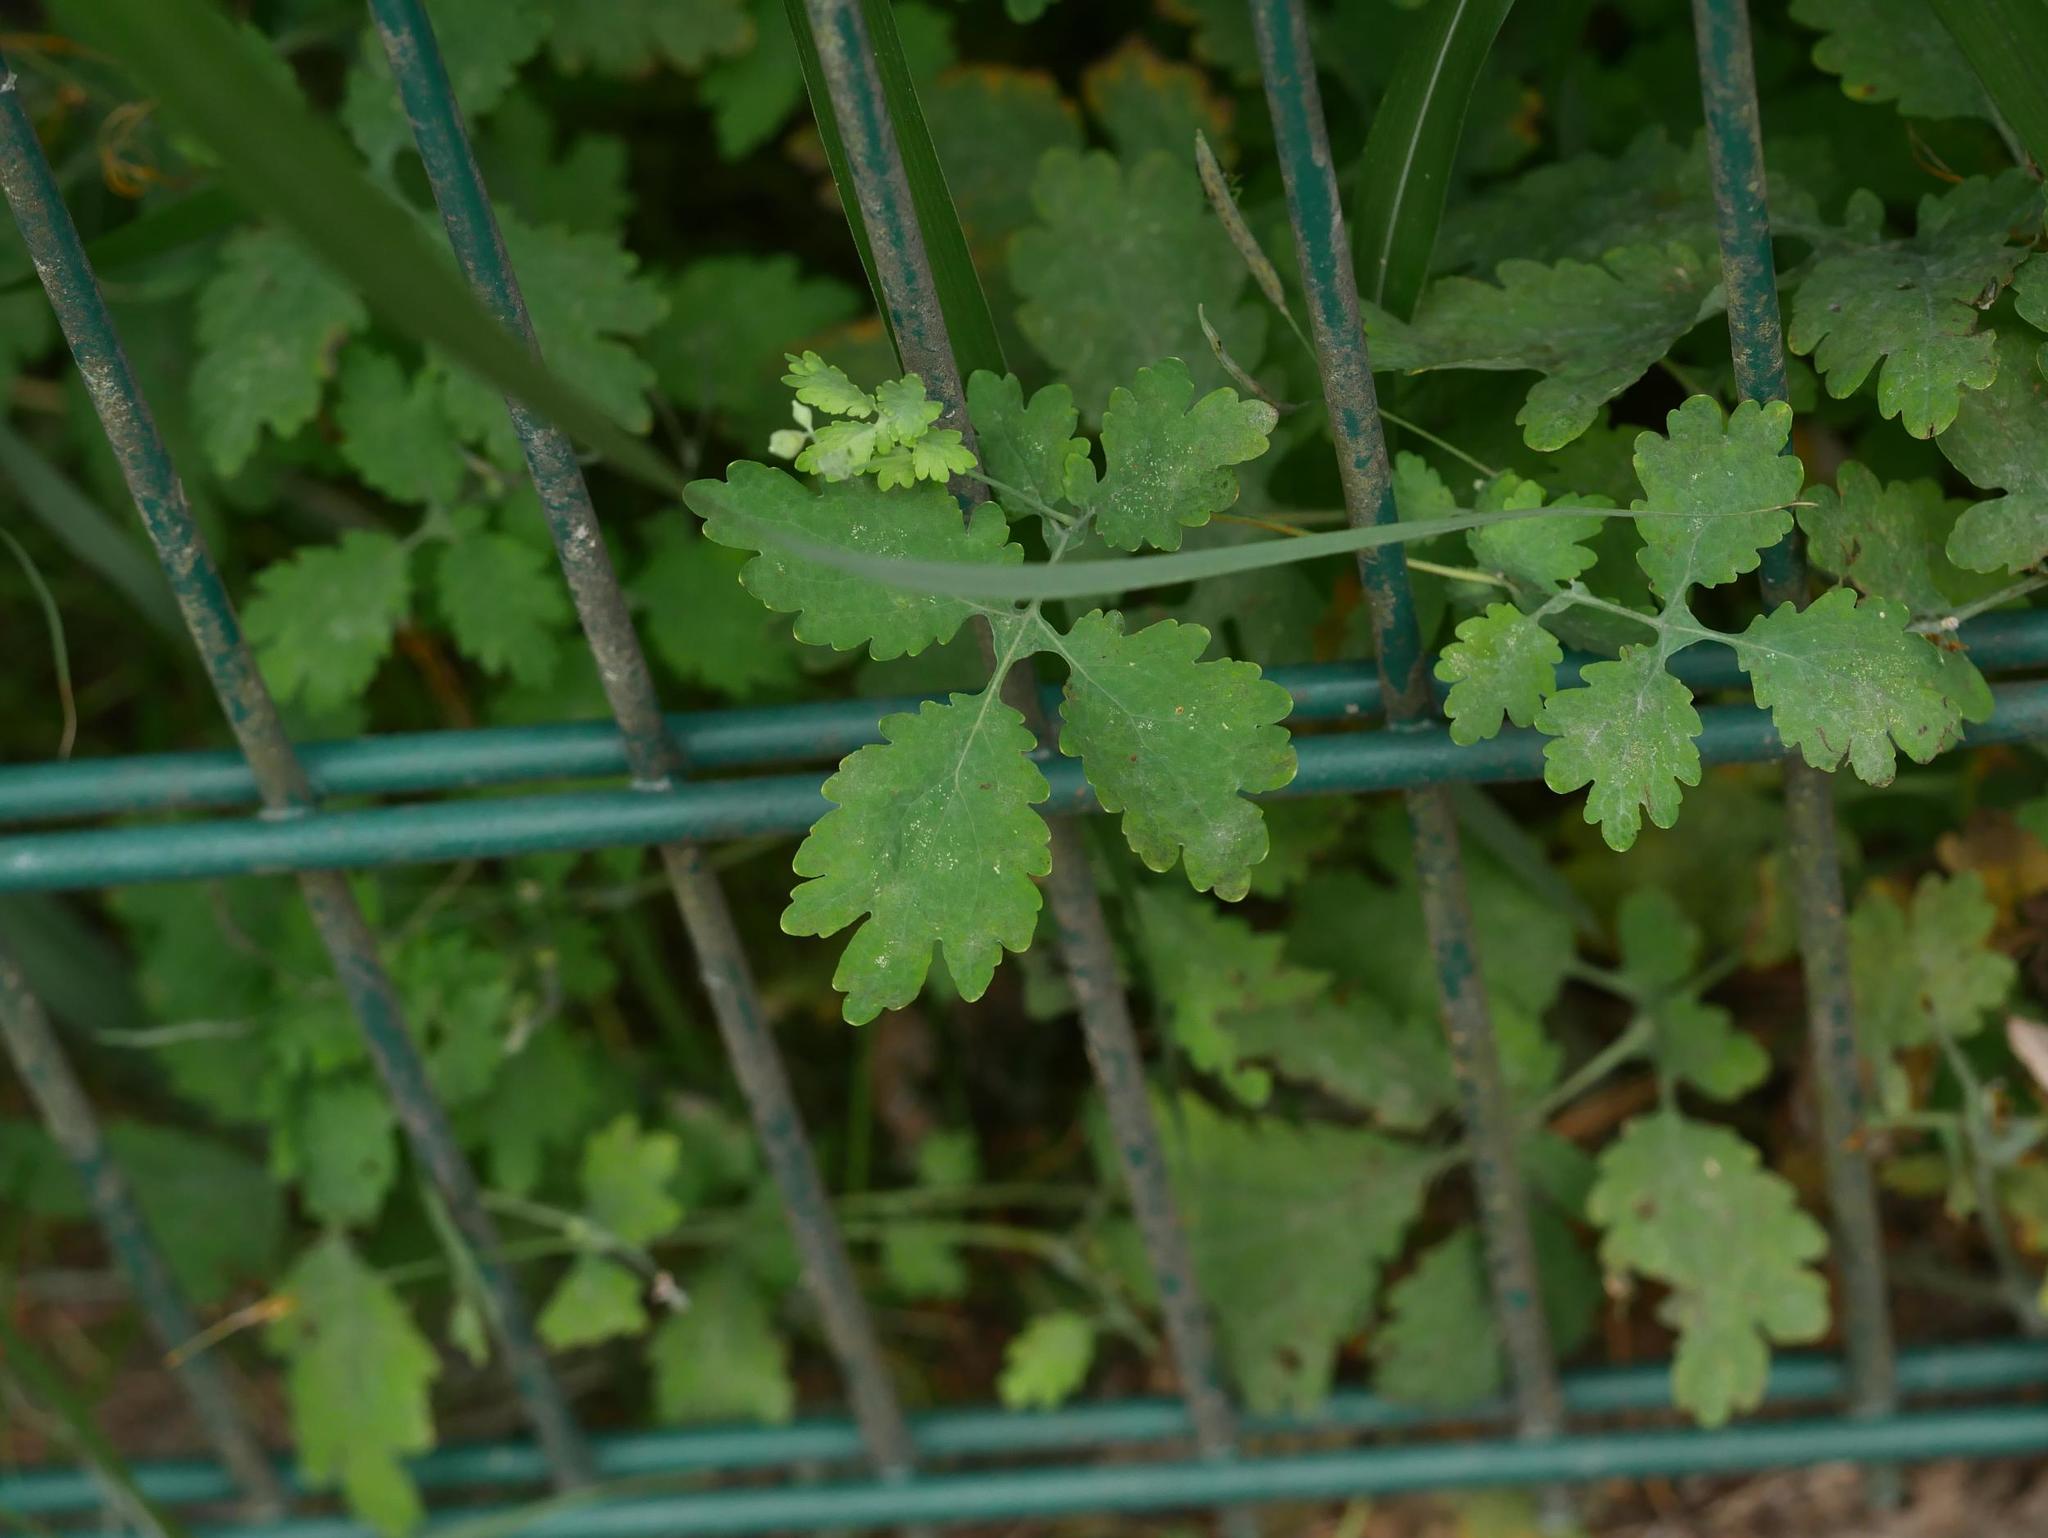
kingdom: Plantae
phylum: Tracheophyta
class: Magnoliopsida
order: Ranunculales
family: Papaveraceae
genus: Chelidonium
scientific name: Chelidonium majus
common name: Greater celandine
